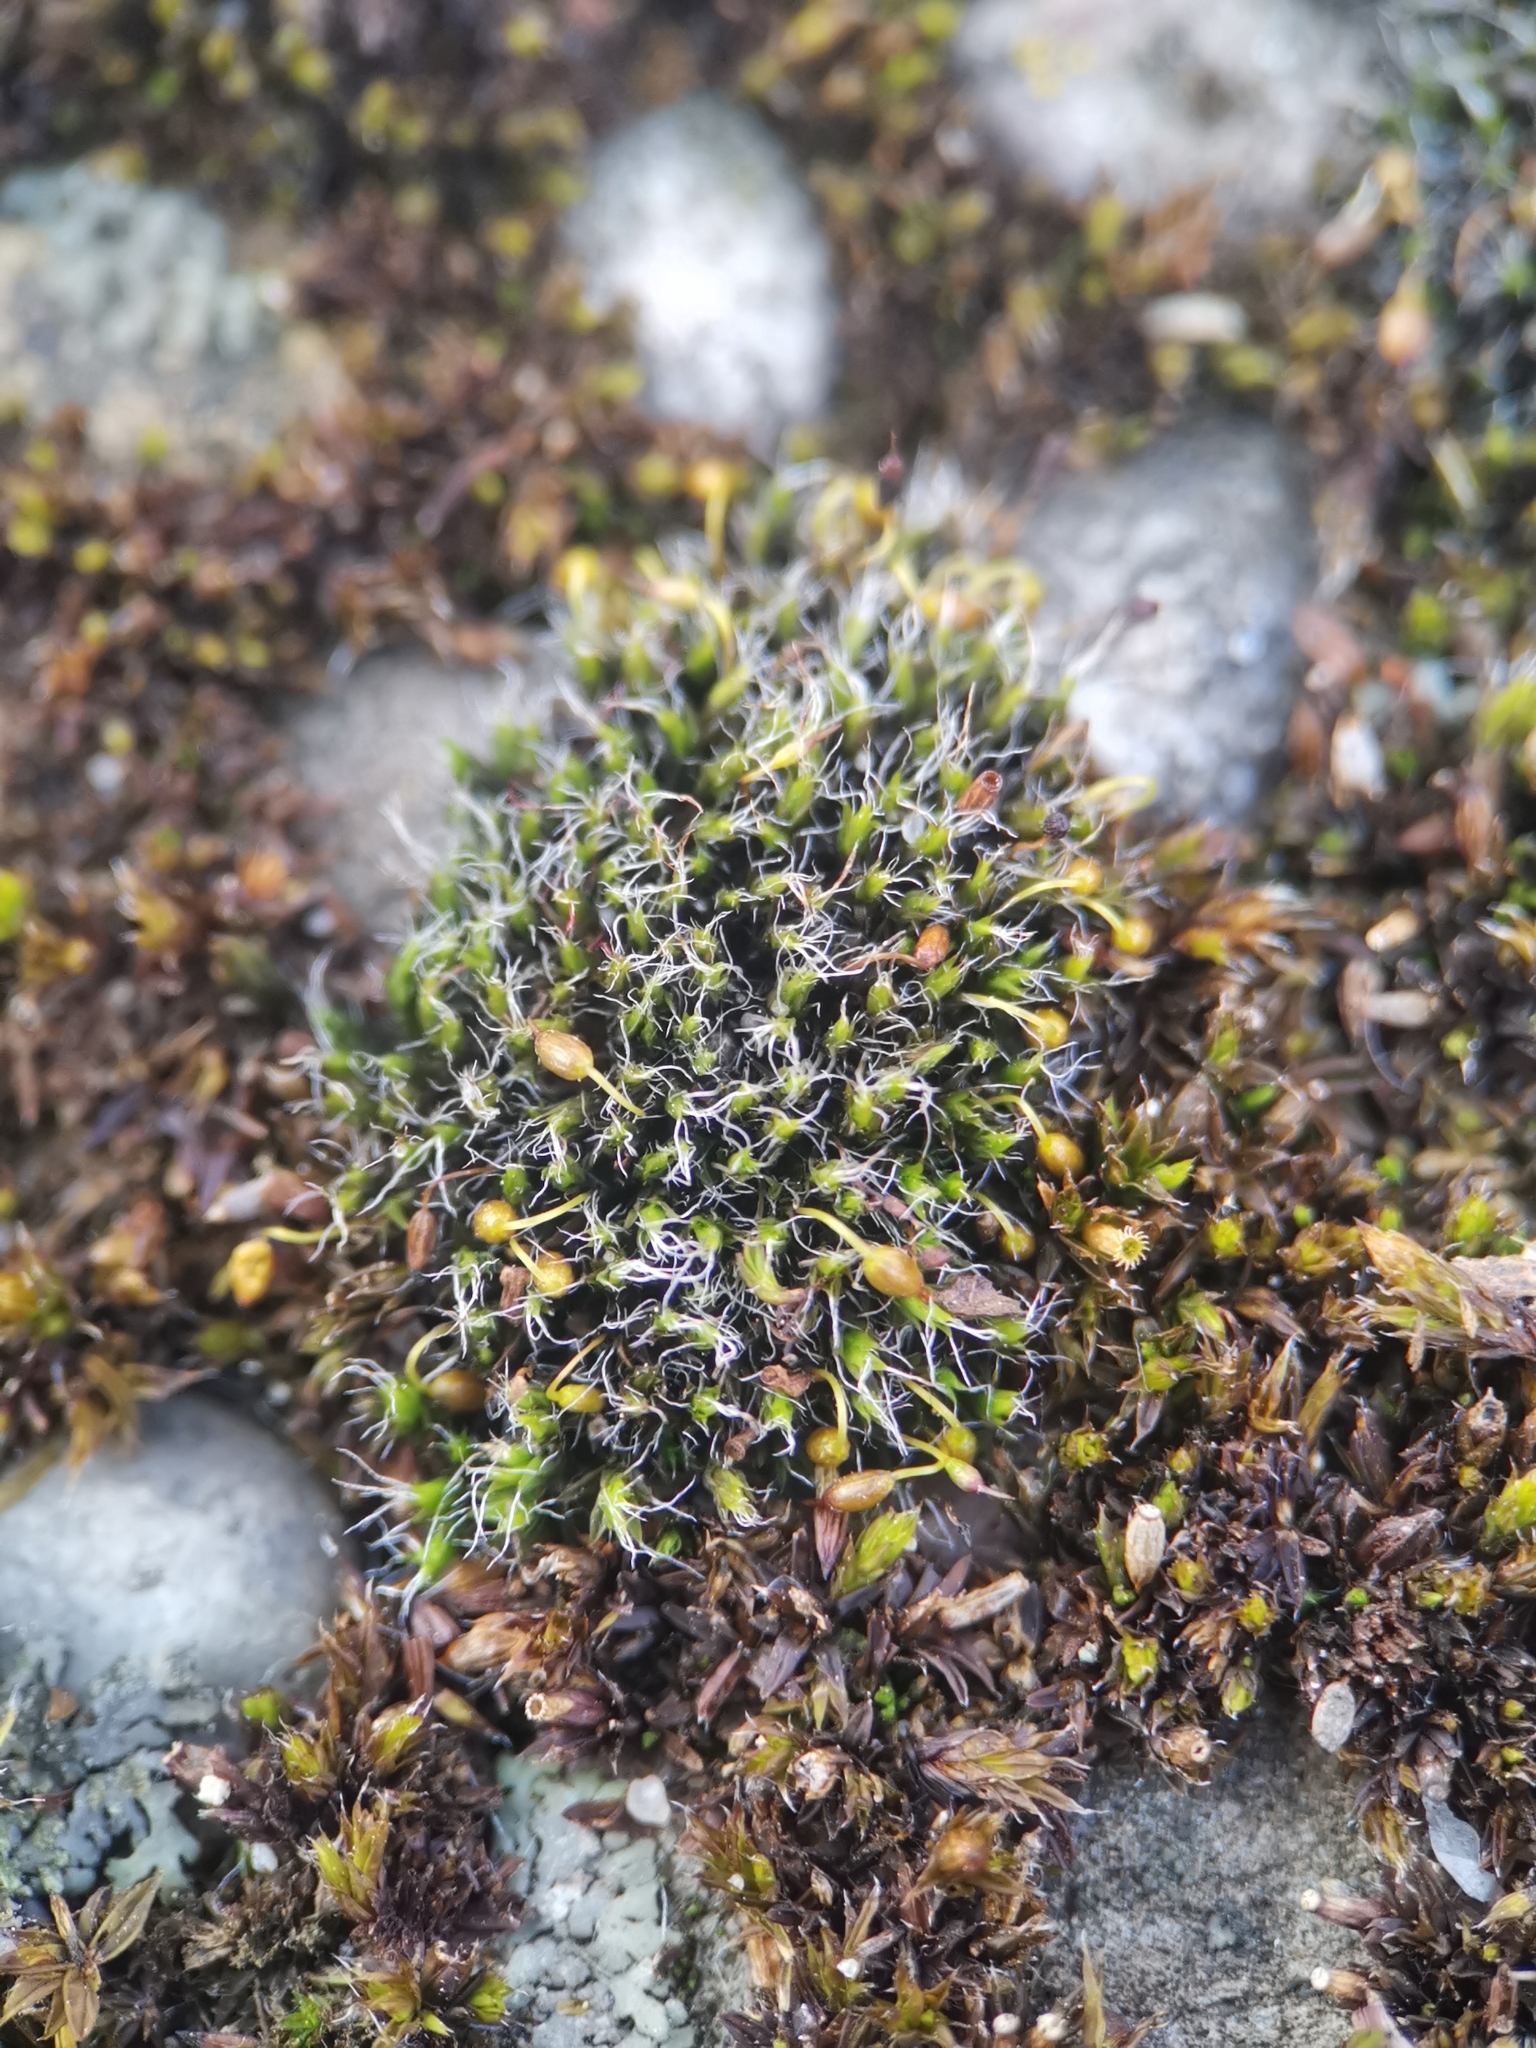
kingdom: Plantae
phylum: Bryophyta
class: Bryopsida
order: Grimmiales
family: Grimmiaceae
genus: Grimmia
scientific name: Grimmia pulvinata
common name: Grey-cushioned grimmia
